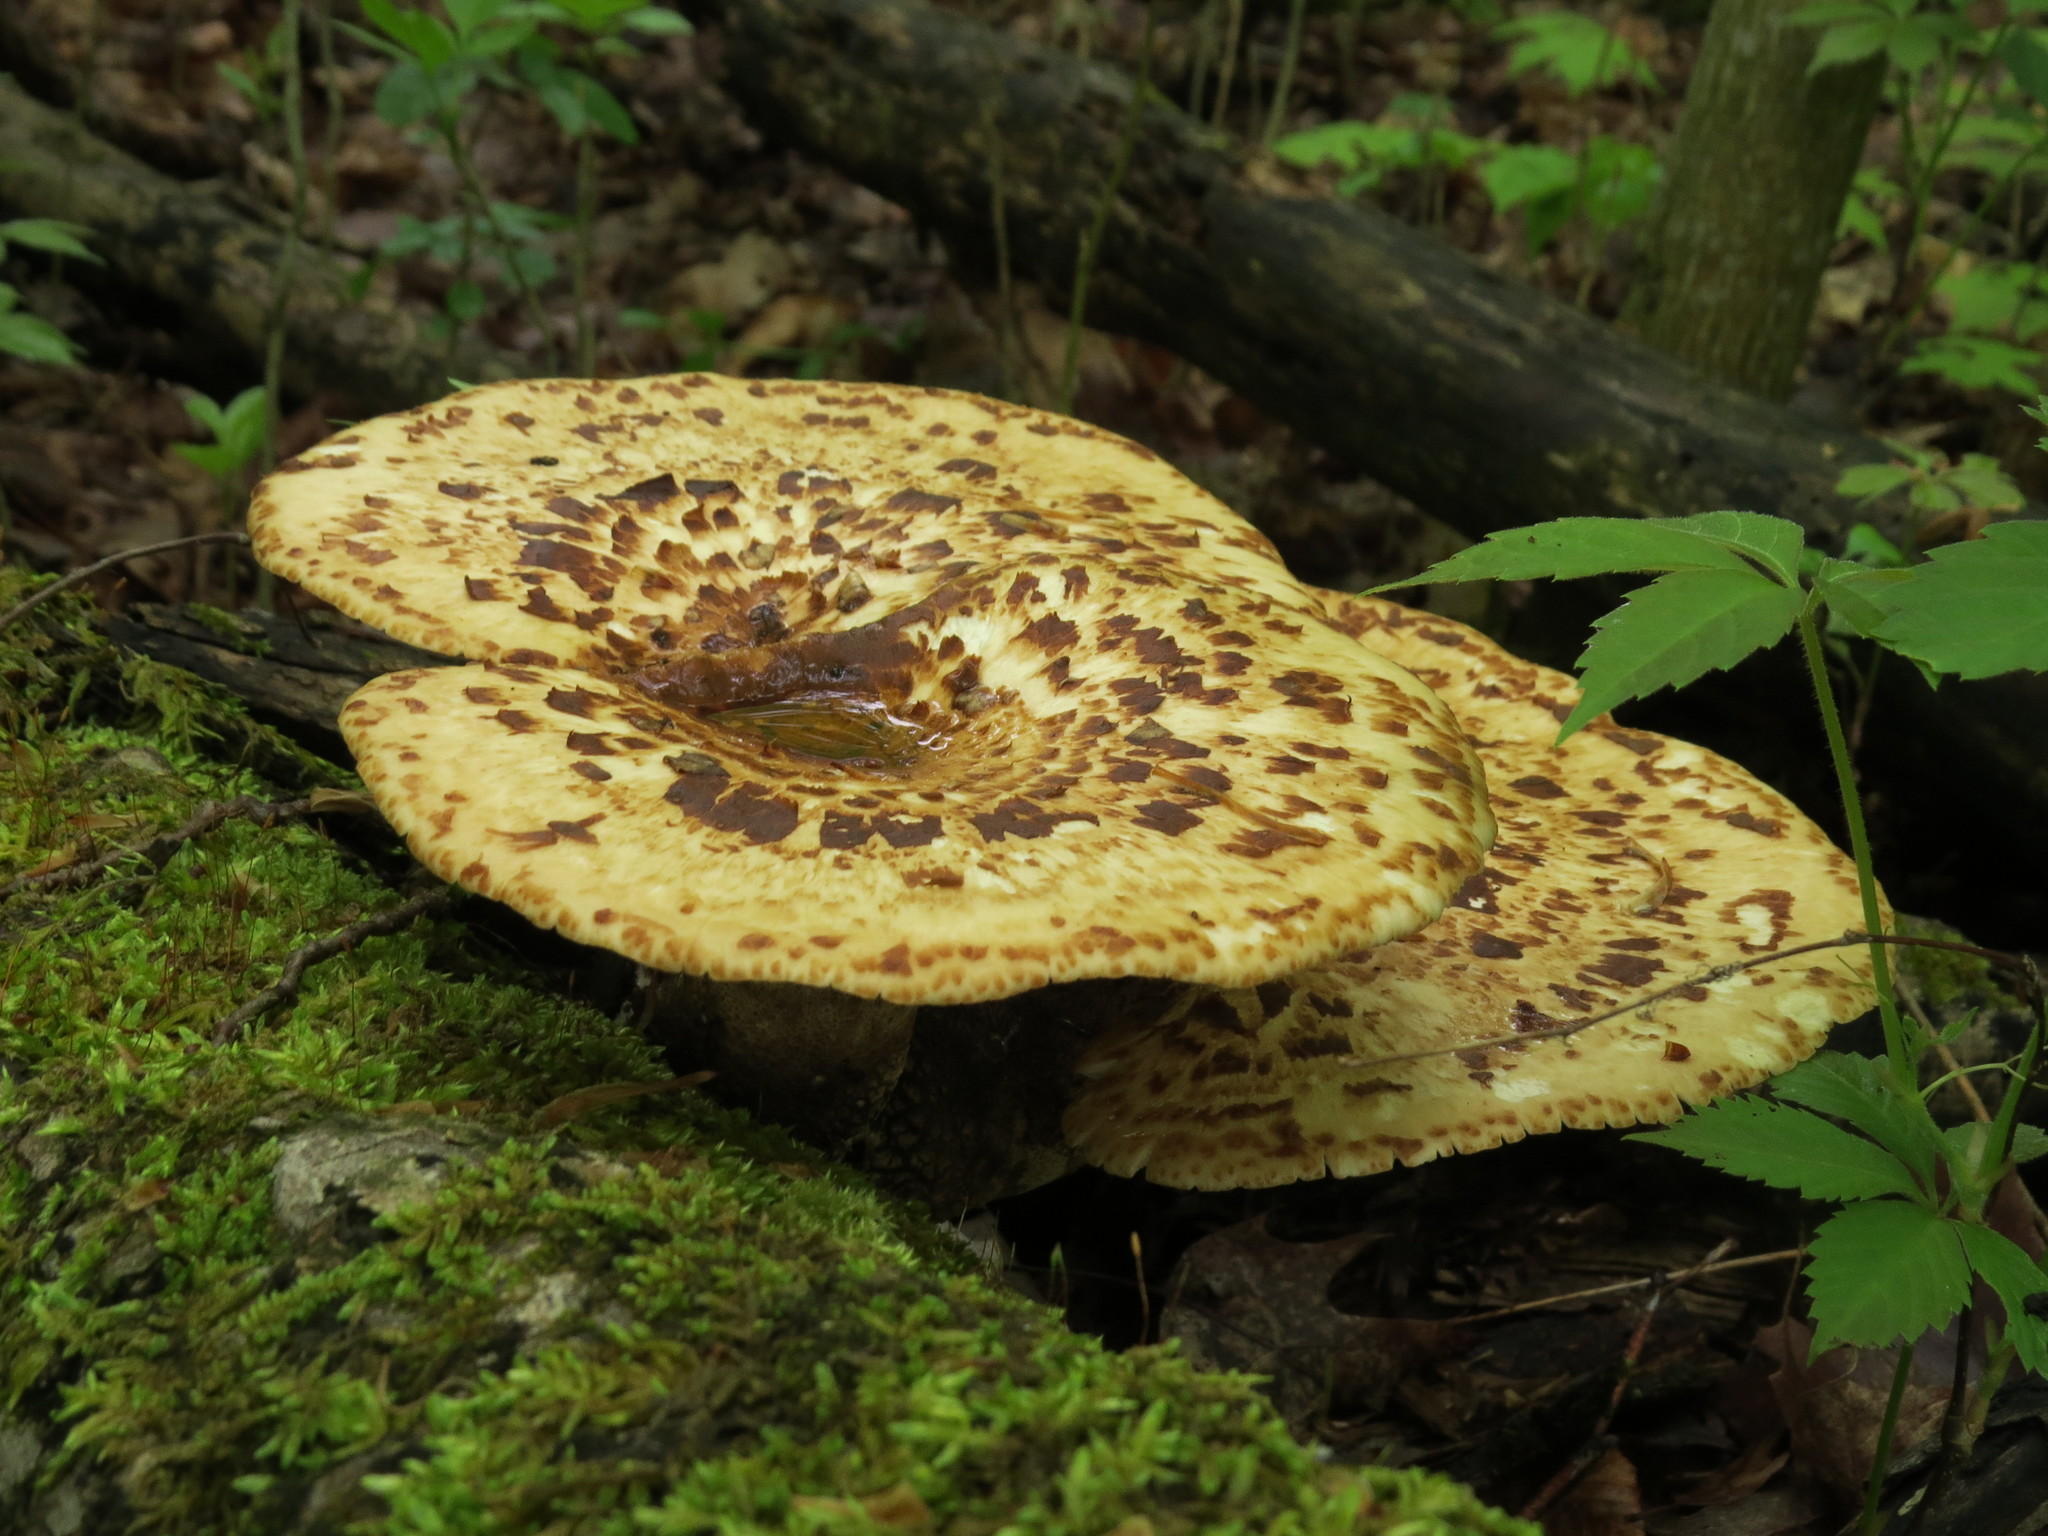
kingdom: Fungi
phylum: Basidiomycota
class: Agaricomycetes
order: Polyporales
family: Polyporaceae
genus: Cerioporus
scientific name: Cerioporus squamosus
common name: Dryad's saddle
